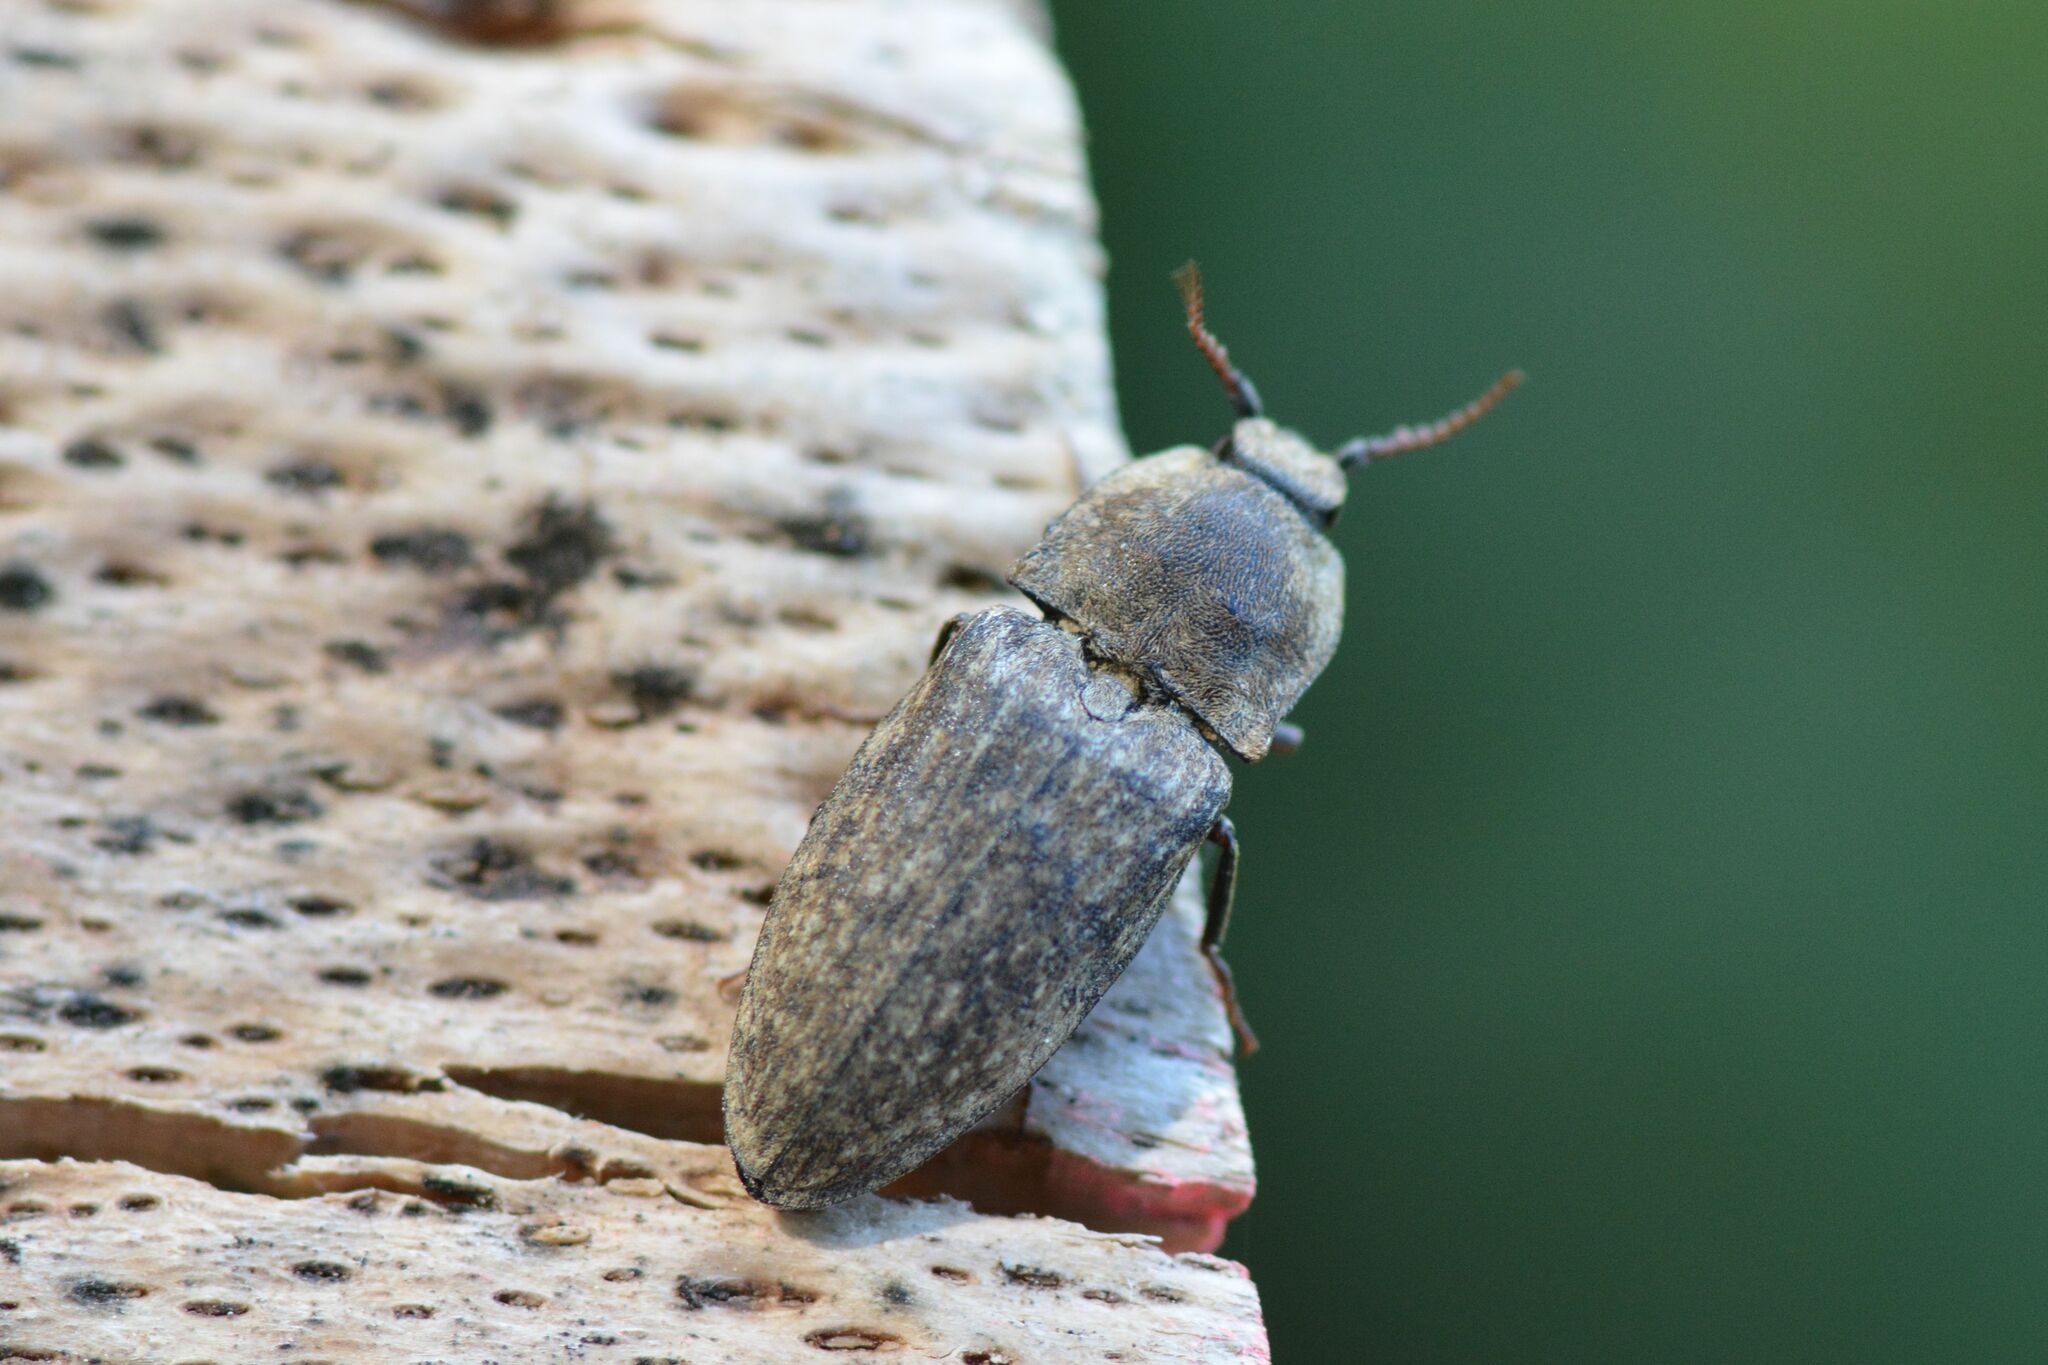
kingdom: Animalia
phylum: Arthropoda
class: Insecta
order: Coleoptera
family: Elateridae
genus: Agrypnus
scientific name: Agrypnus murinus
